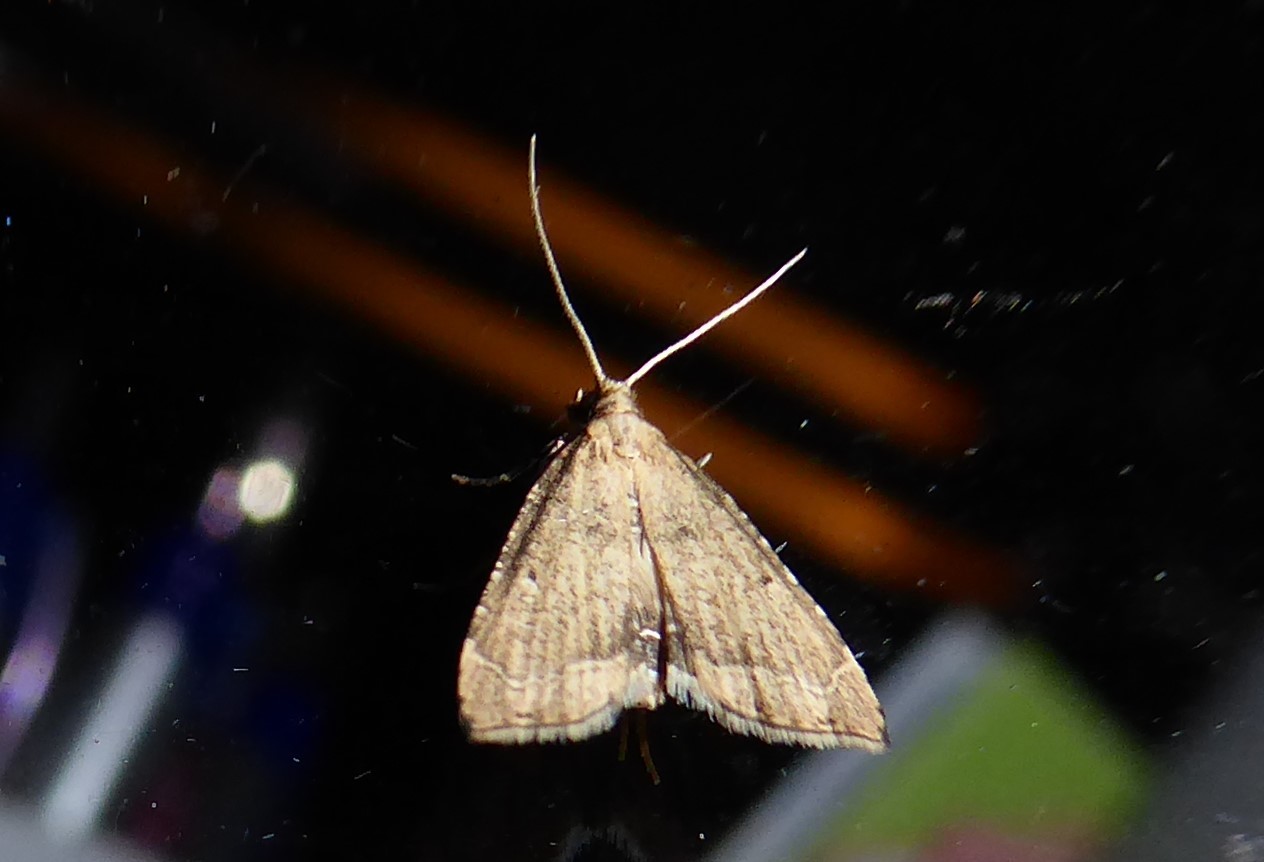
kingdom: Animalia
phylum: Arthropoda
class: Insecta
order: Lepidoptera
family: Crambidae
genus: Diplopseustis
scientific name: Diplopseustis perieresalis
